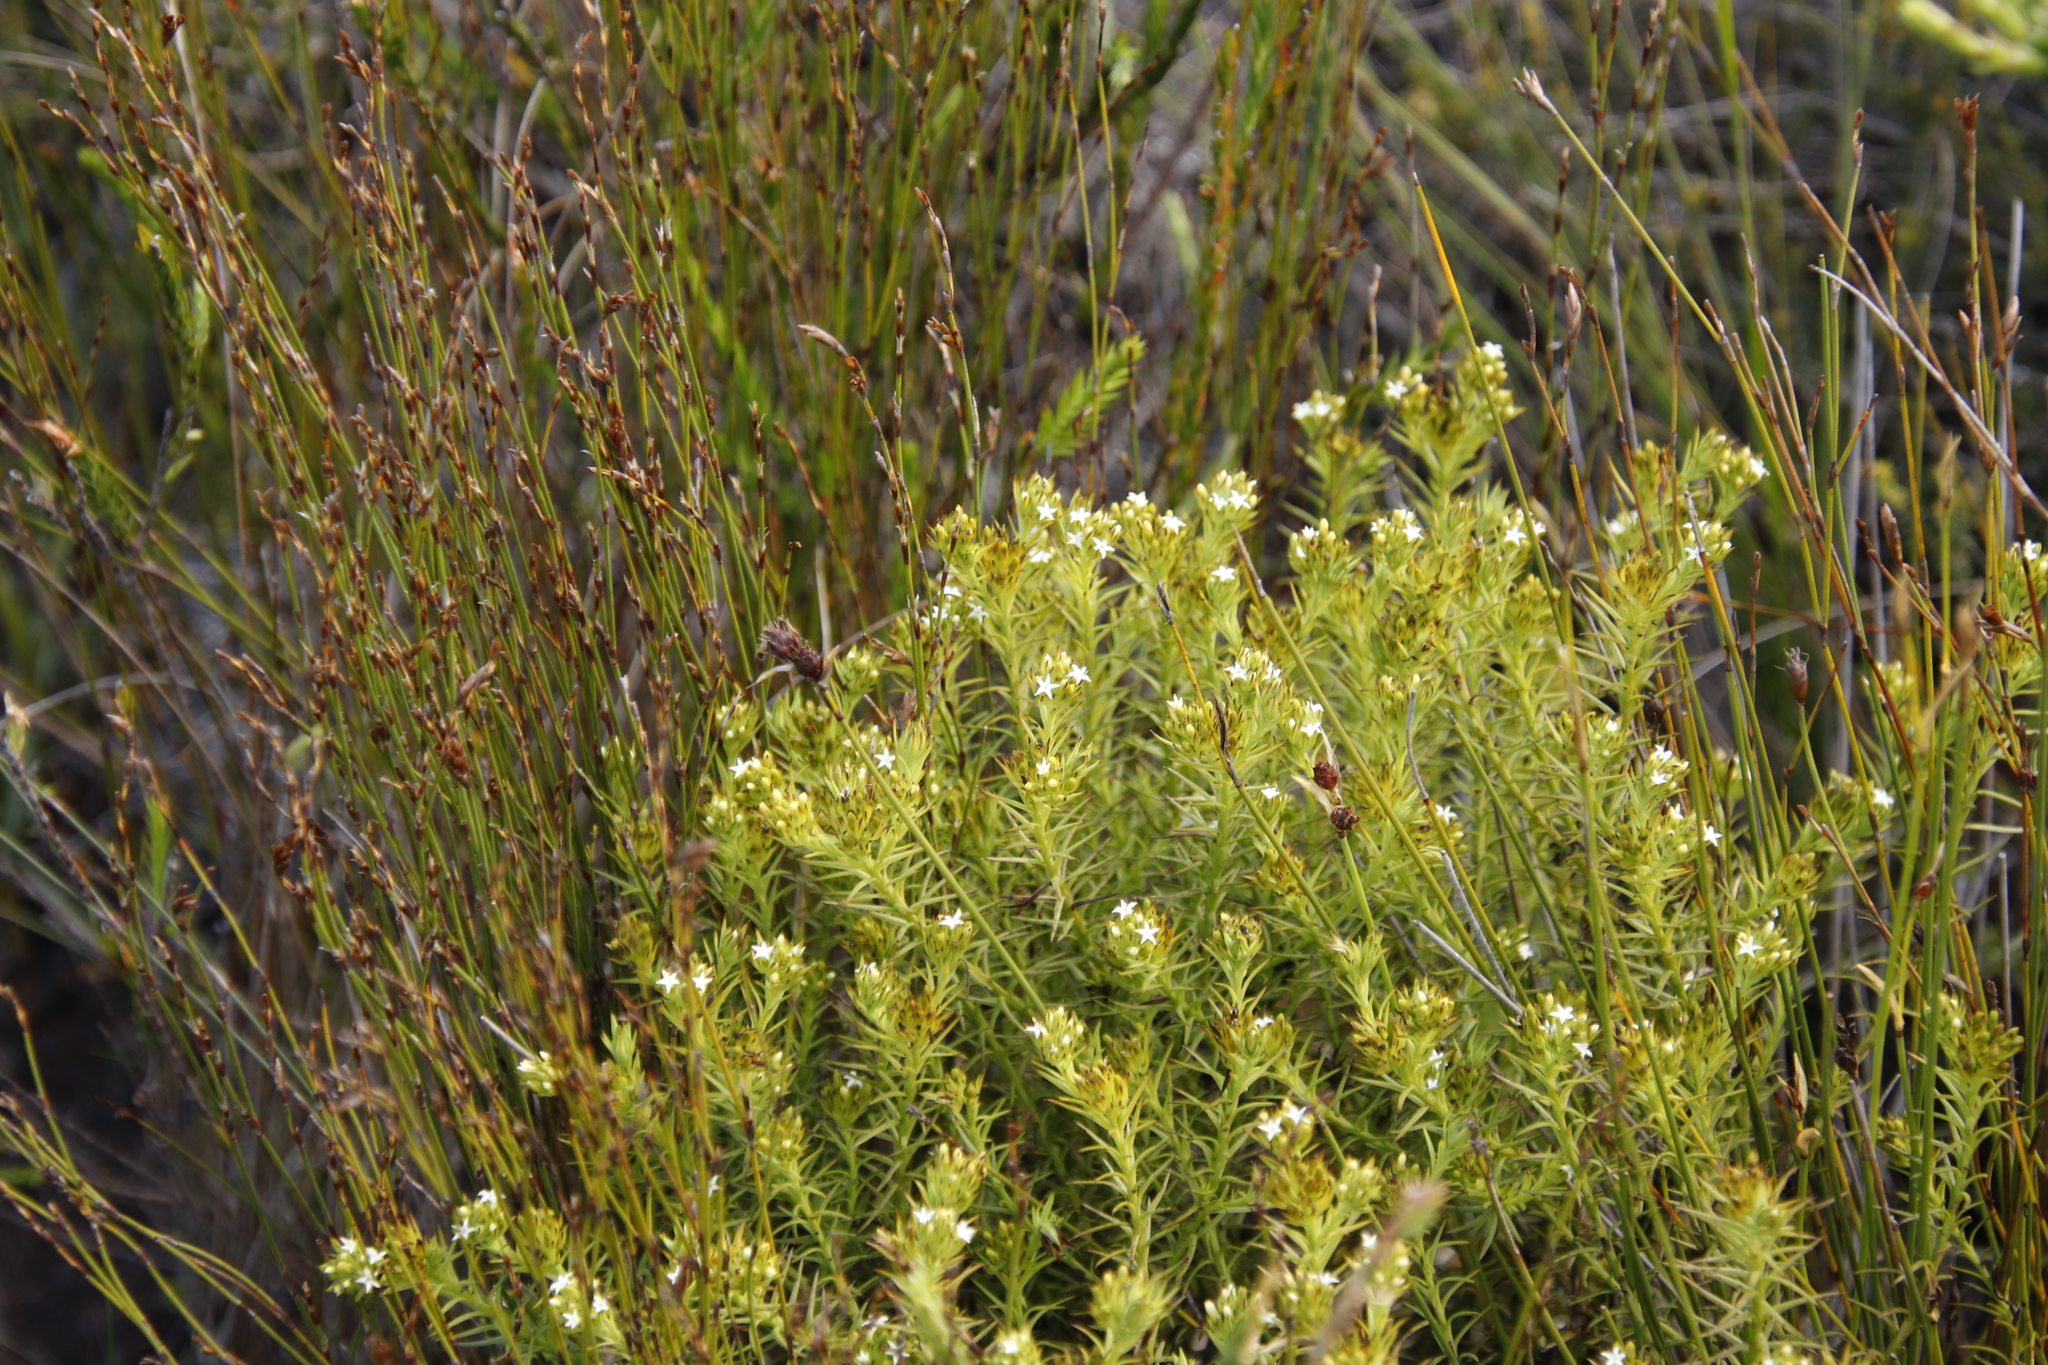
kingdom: Plantae
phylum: Tracheophyta
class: Magnoliopsida
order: Santalales
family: Thesiaceae
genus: Thesium
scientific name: Thesium viridifolium
